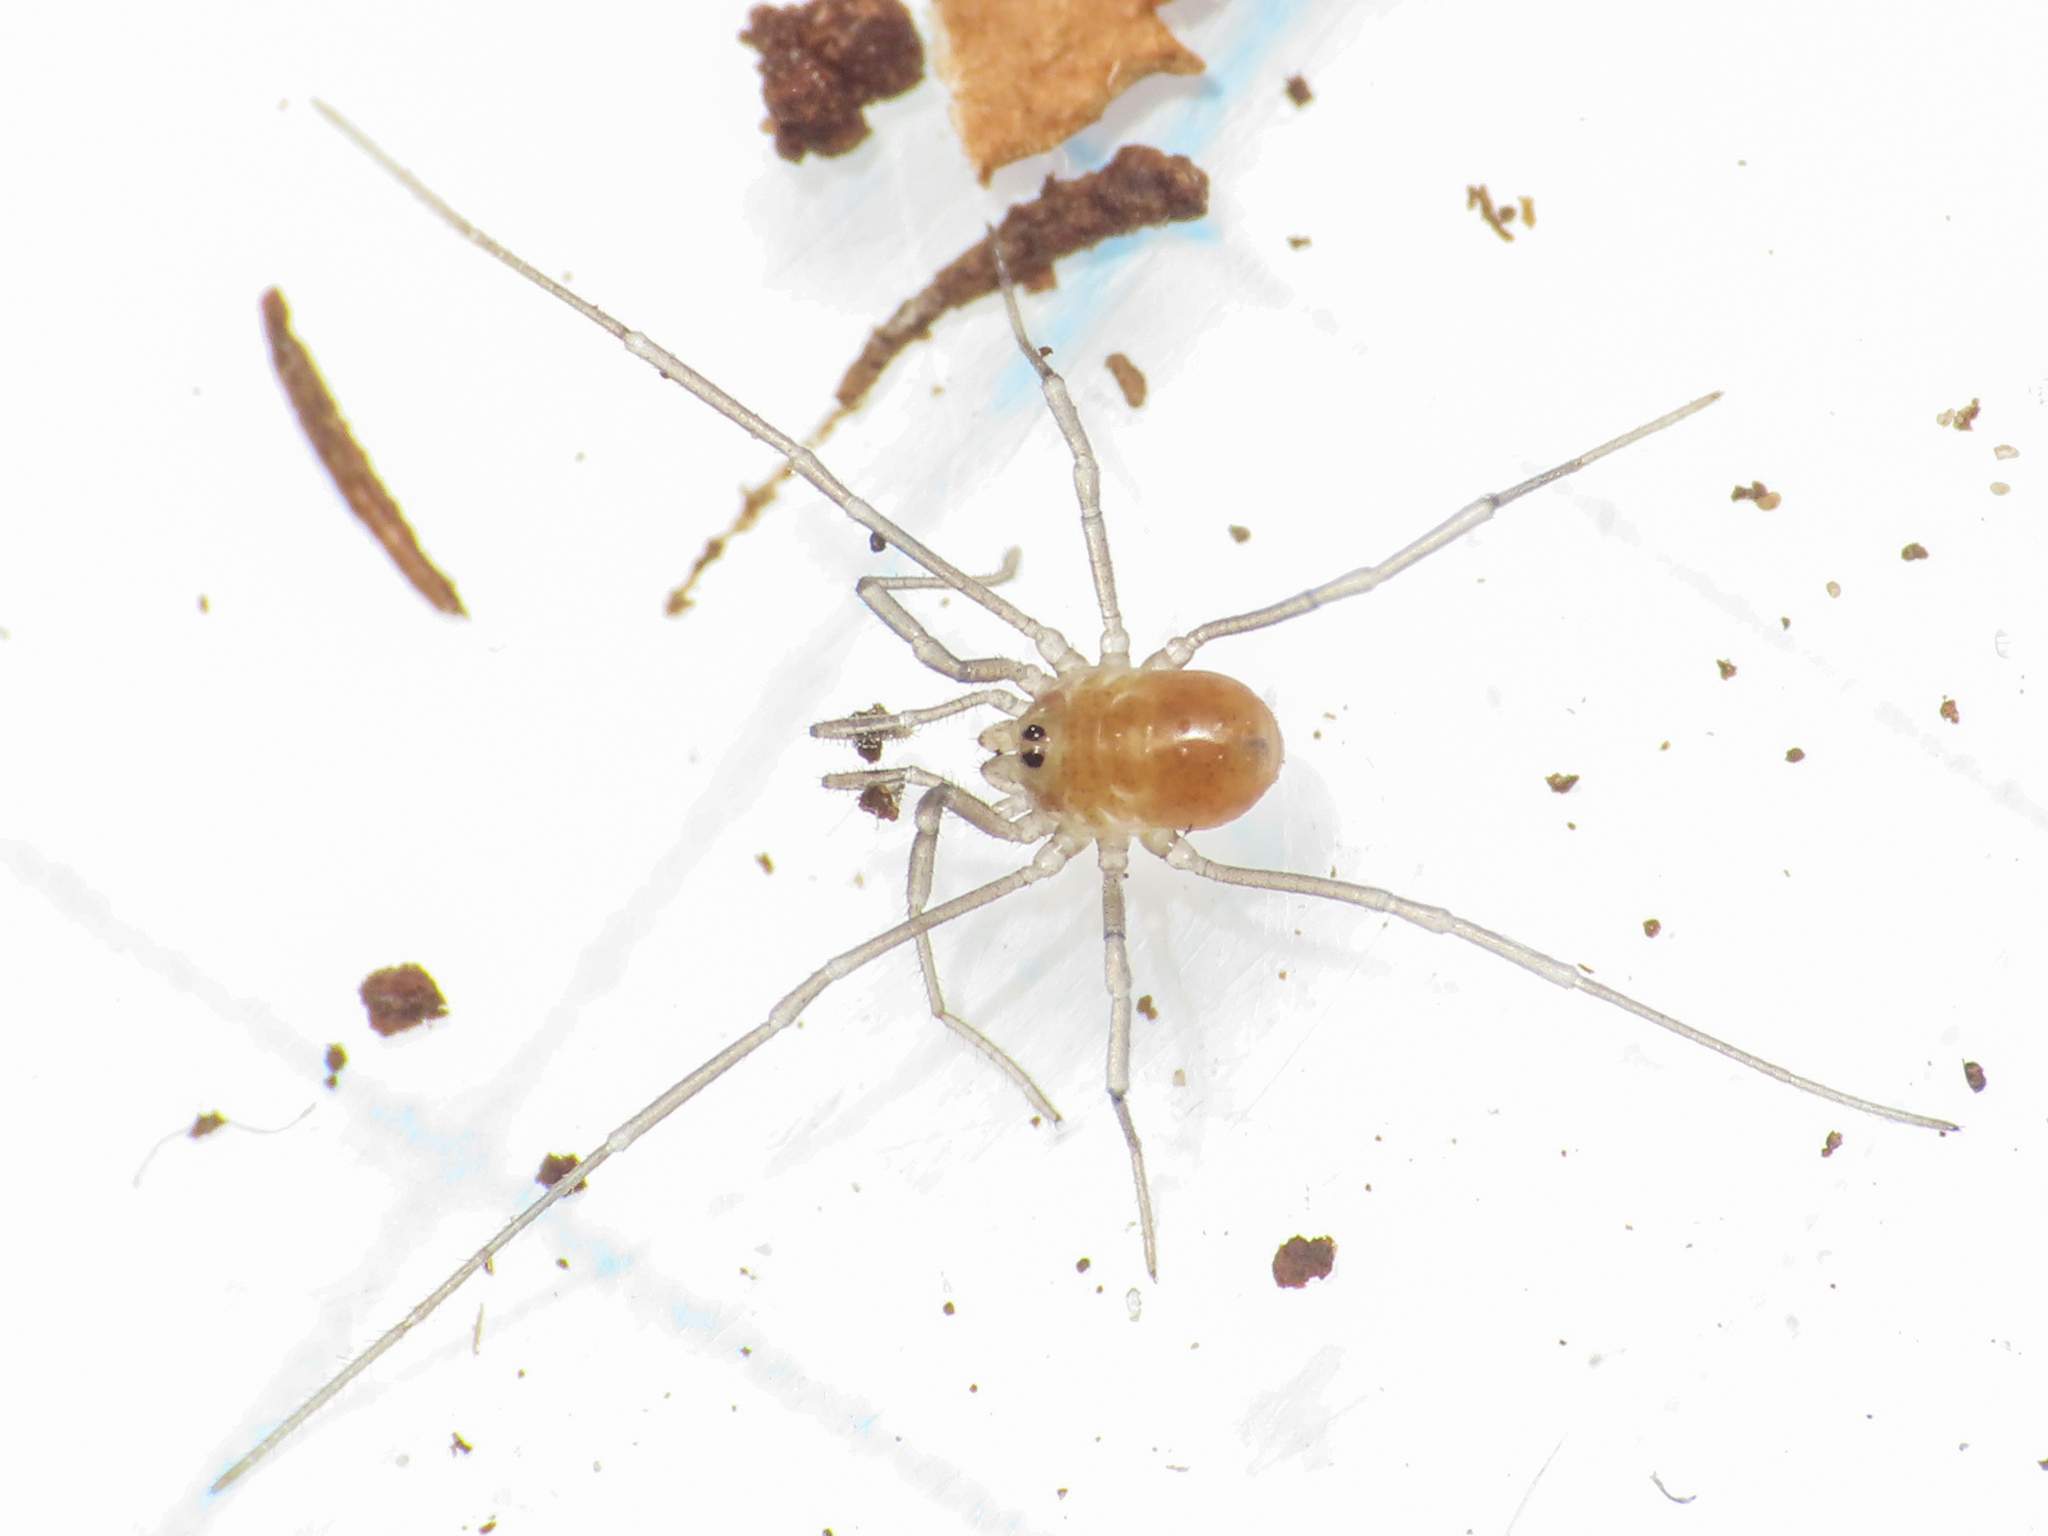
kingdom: Animalia
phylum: Arthropoda
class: Arachnida
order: Opiliones
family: Nemastomatidae
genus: Histricostoma
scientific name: Histricostoma argenteolunulatum
